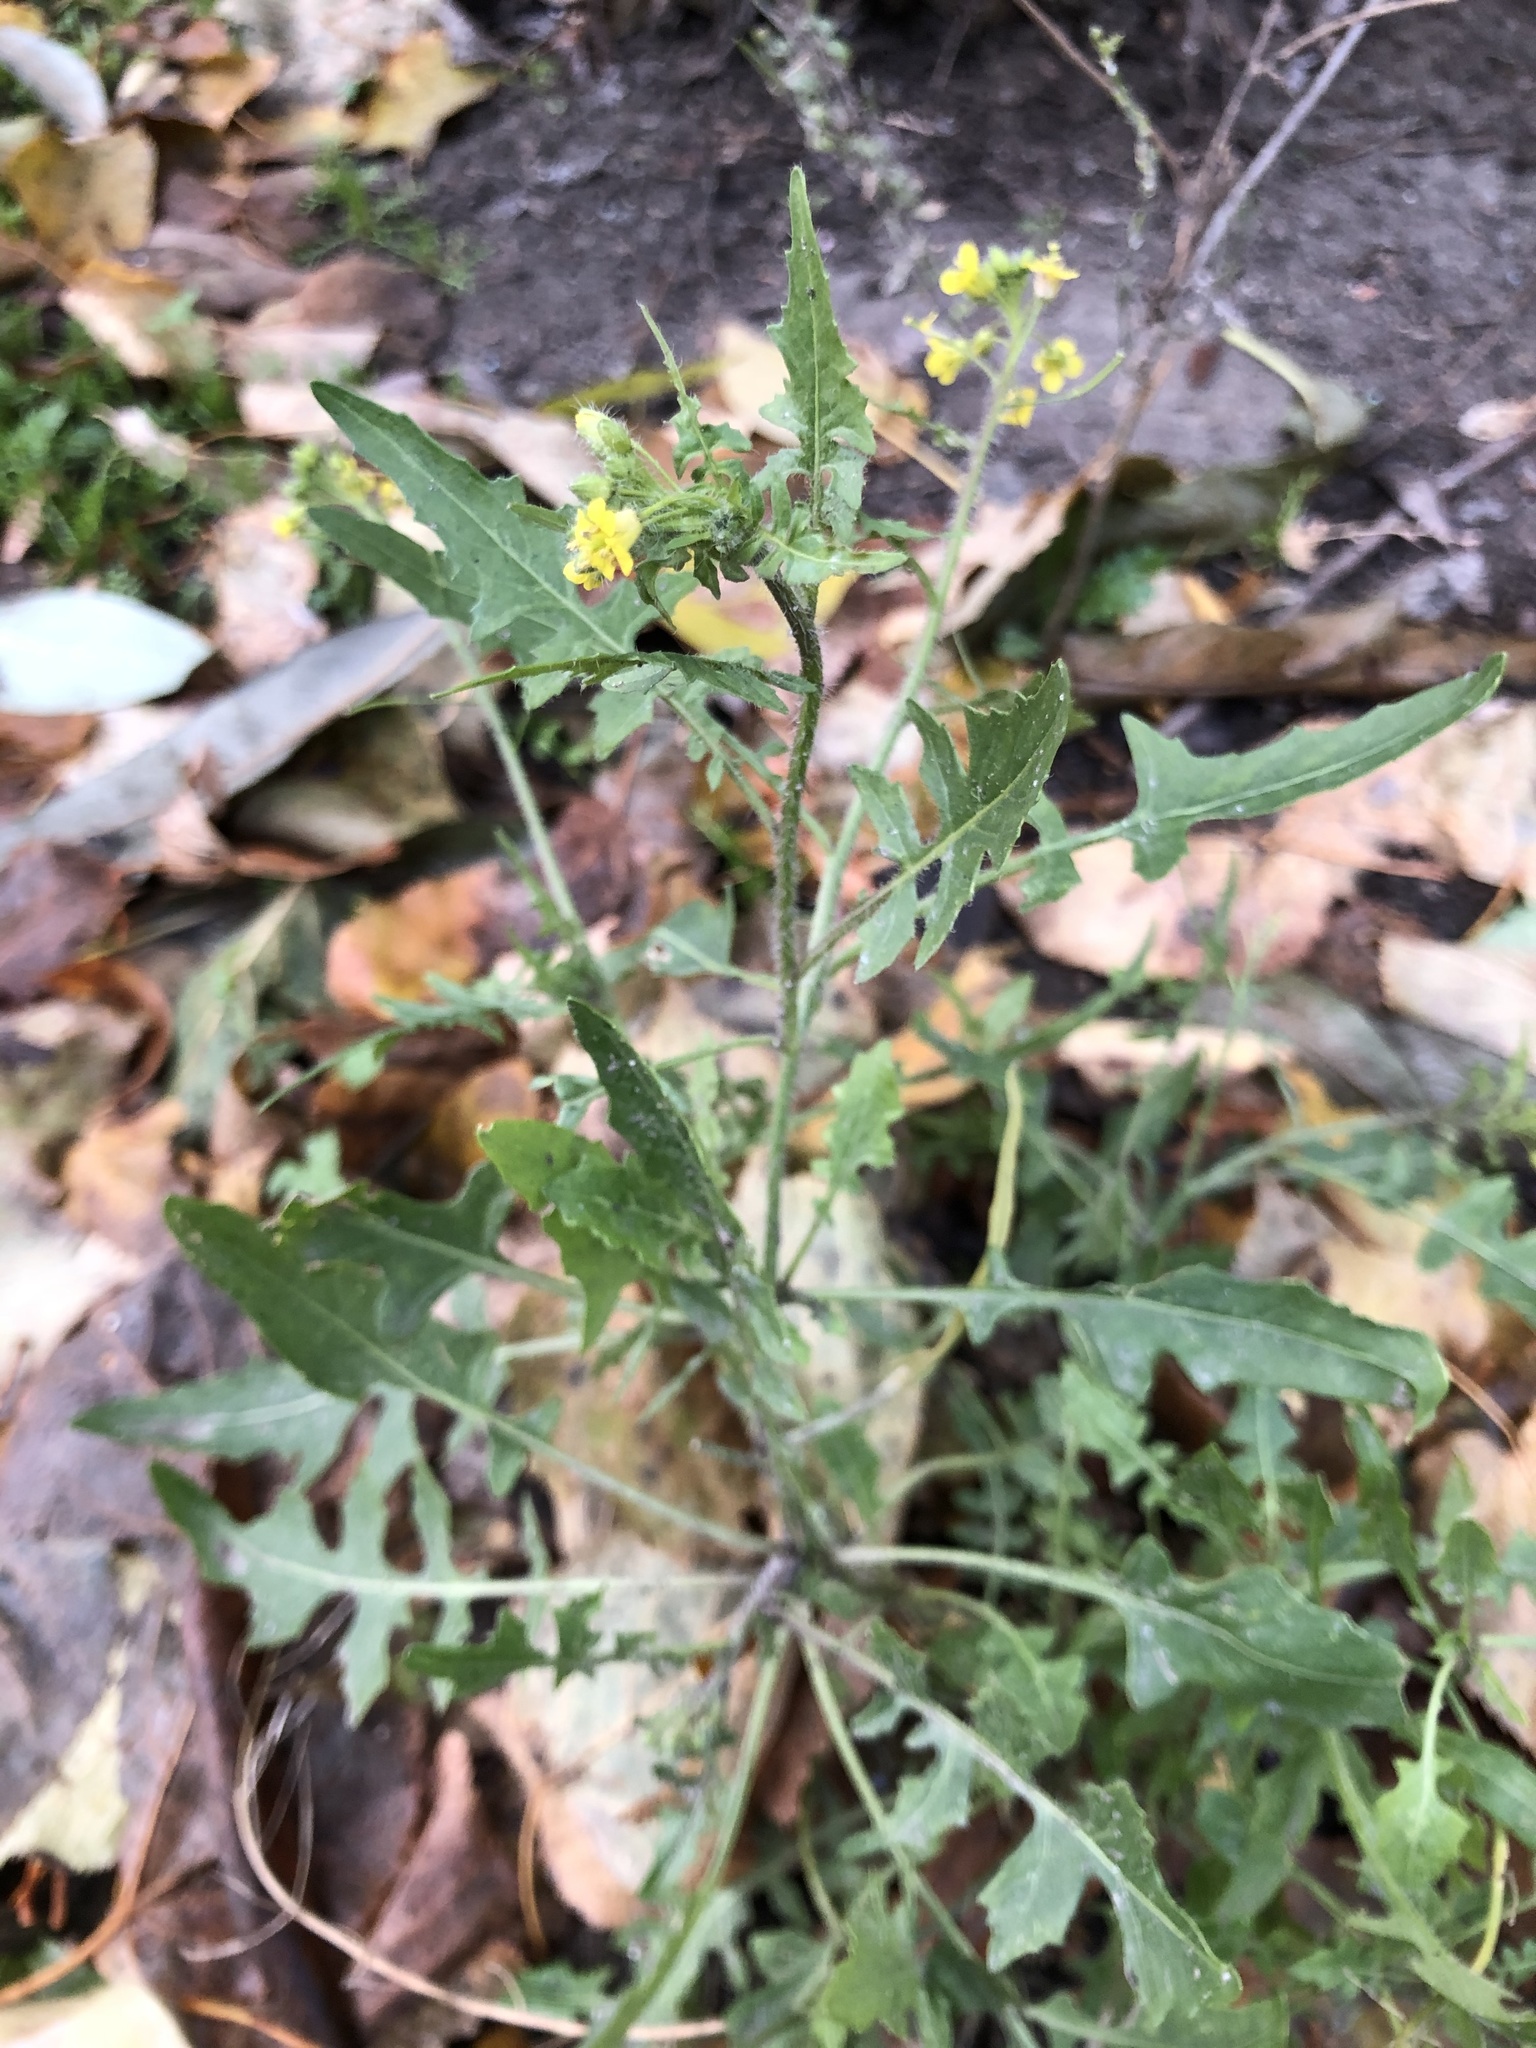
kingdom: Plantae
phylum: Tracheophyta
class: Magnoliopsida
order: Brassicales
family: Brassicaceae
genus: Sisymbrium
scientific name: Sisymbrium loeselii
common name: False london-rocket
